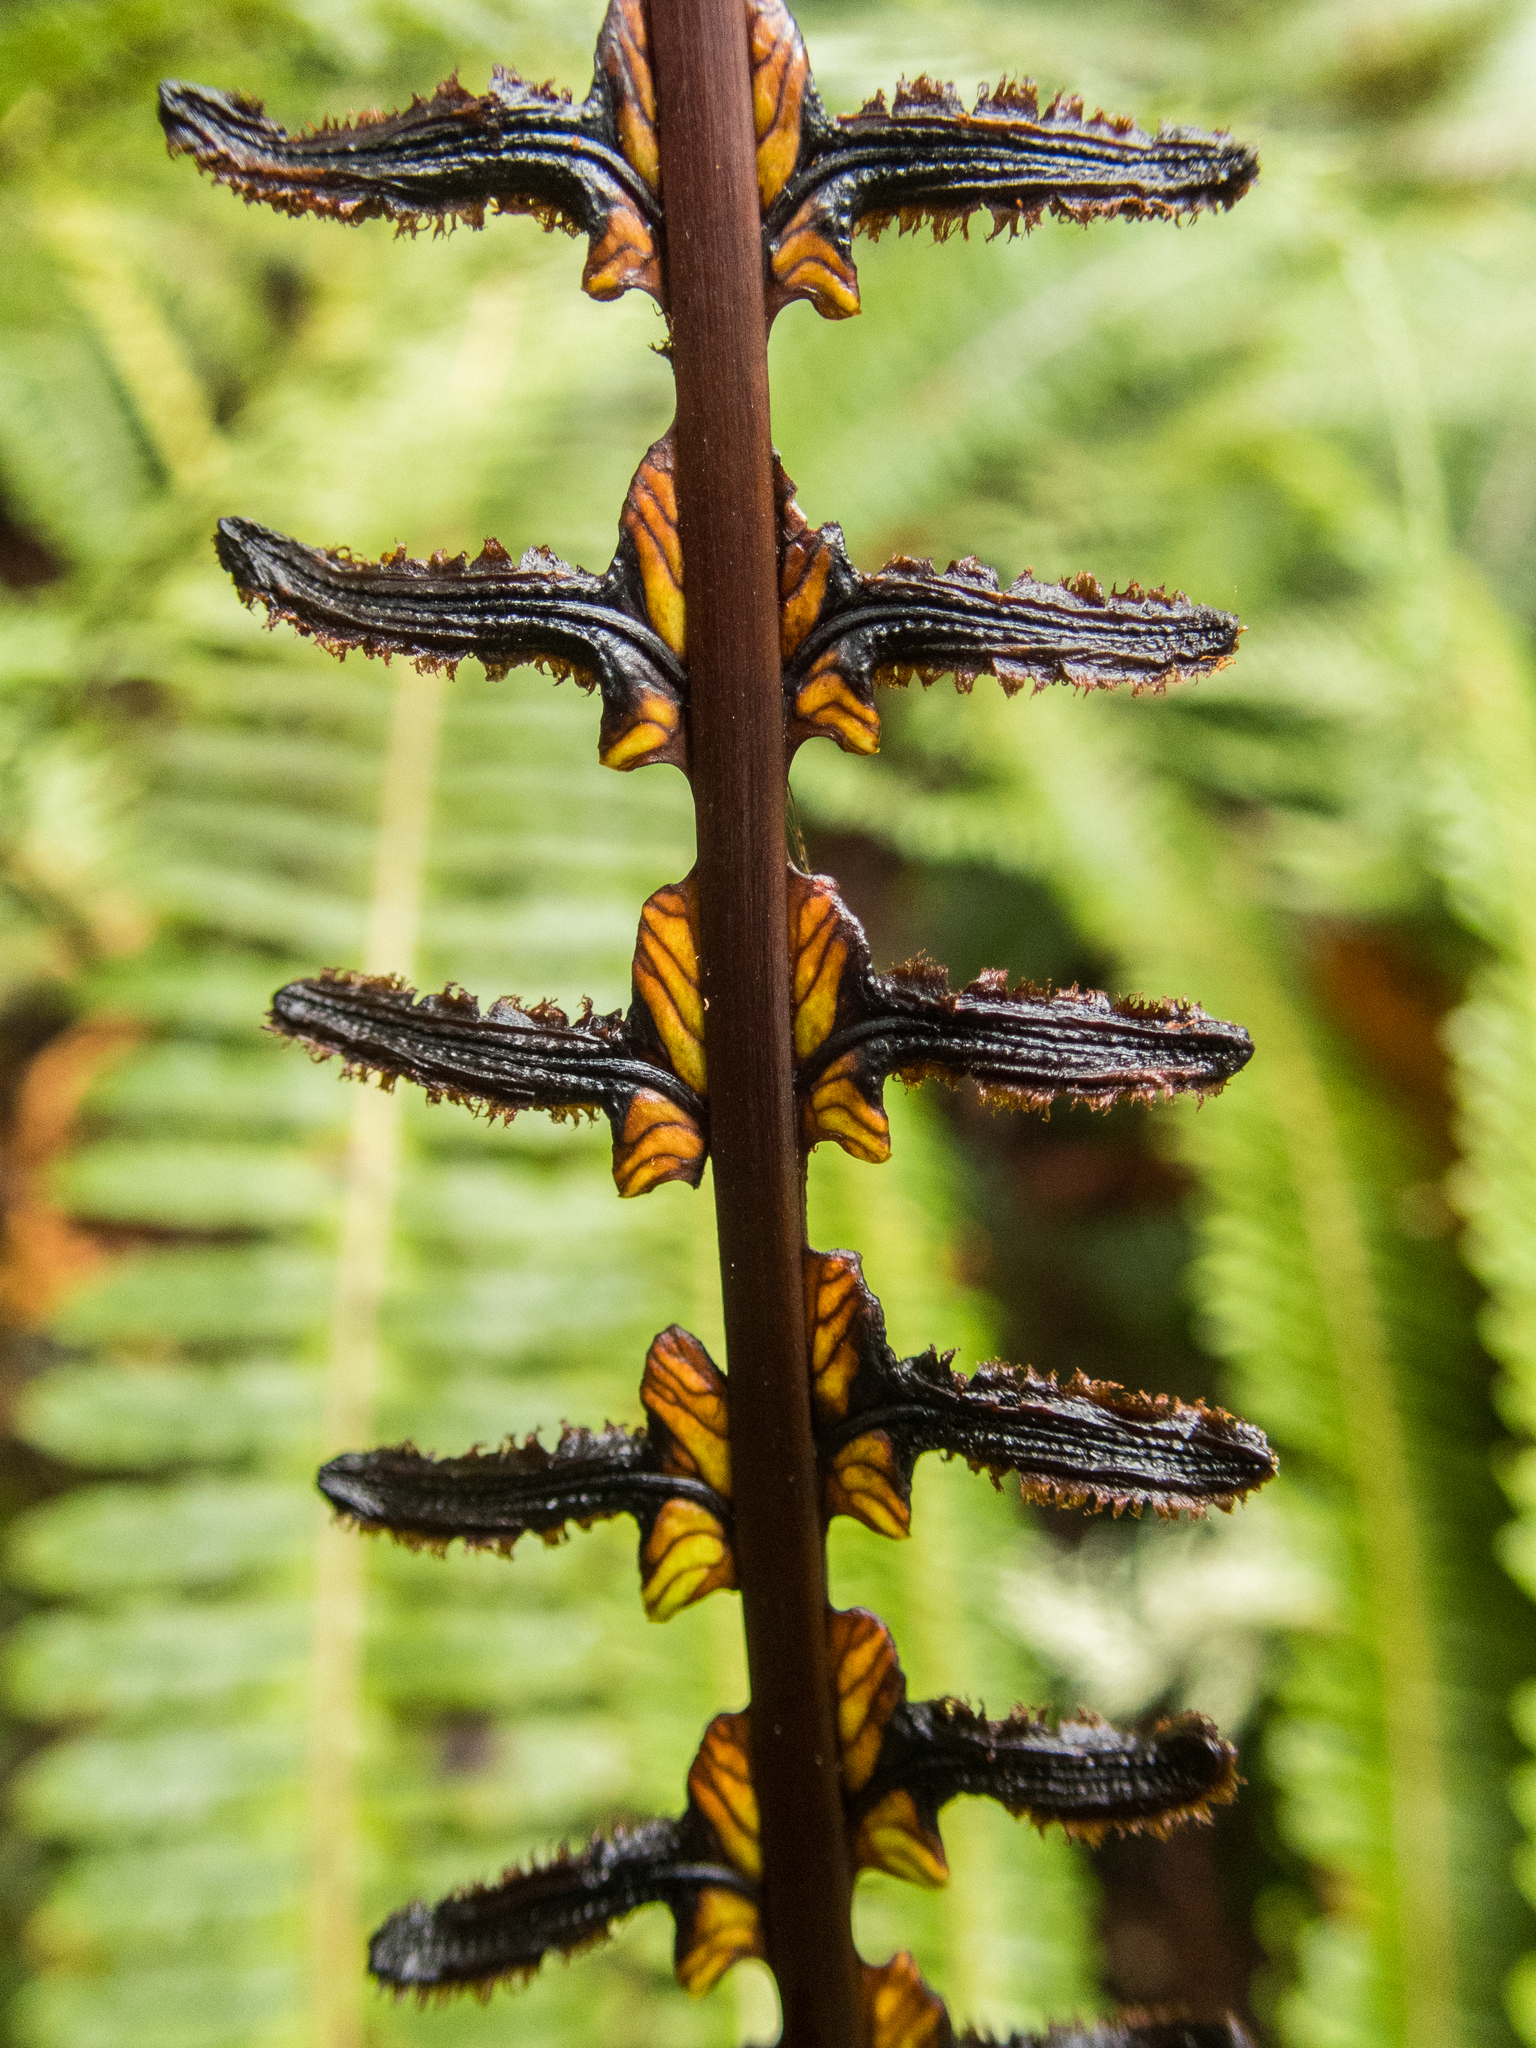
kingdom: Plantae
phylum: Tracheophyta
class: Polypodiopsida
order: Polypodiales
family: Blechnaceae
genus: Lomaria
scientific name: Lomaria discolor
